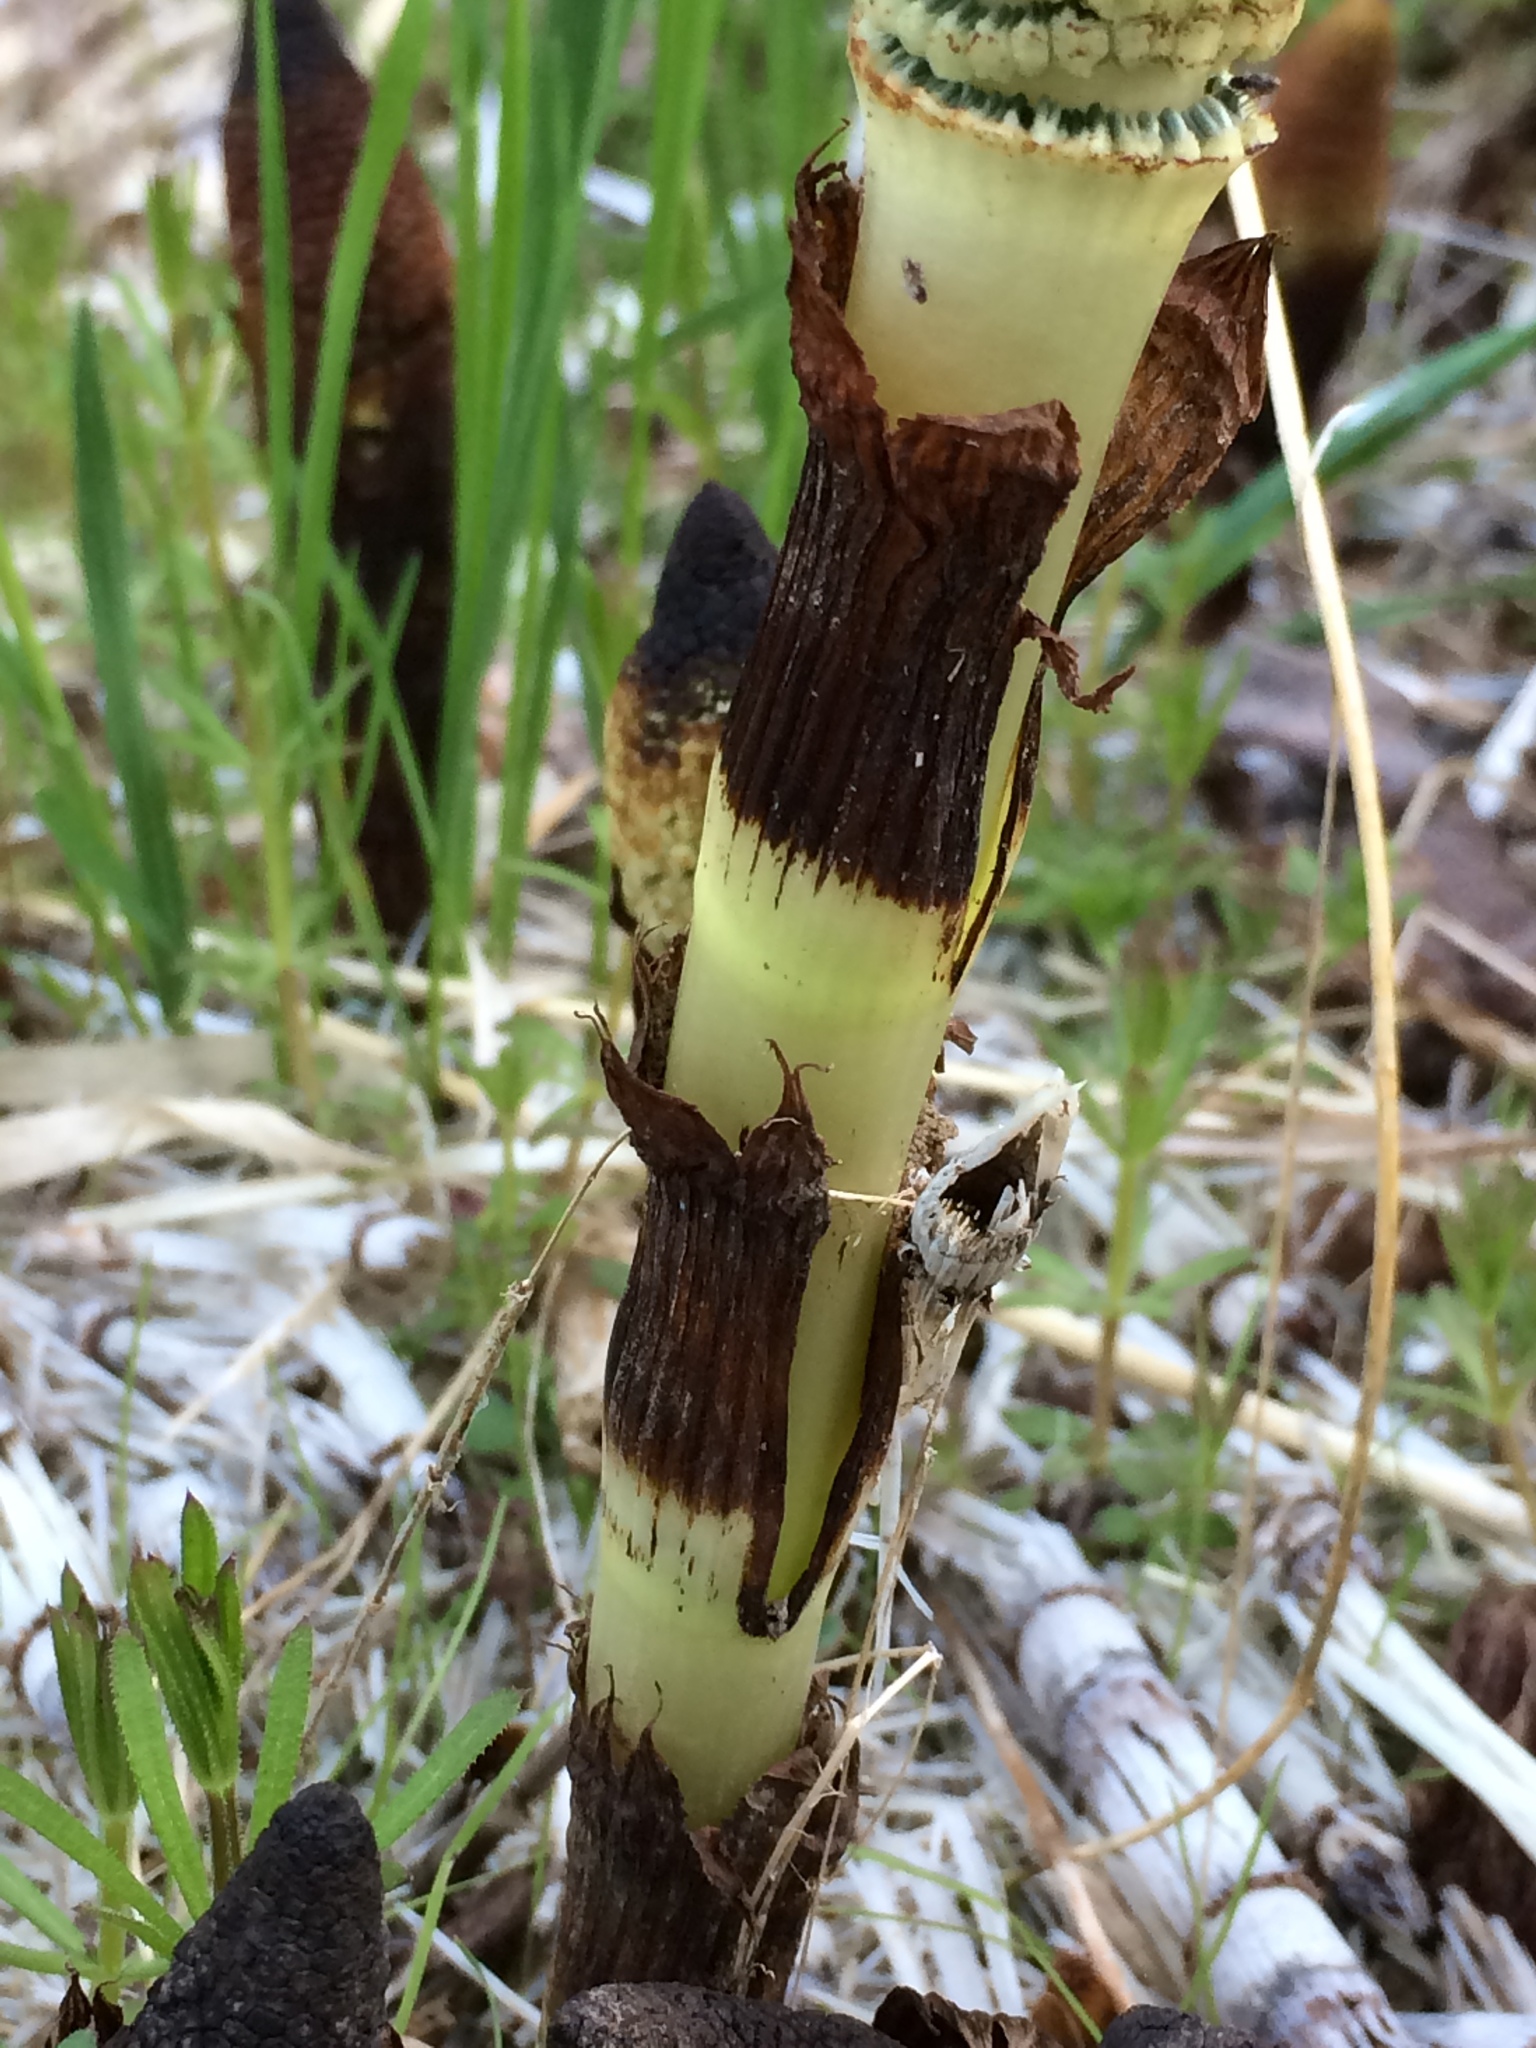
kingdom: Plantae
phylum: Tracheophyta
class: Polypodiopsida
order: Equisetales
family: Equisetaceae
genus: Equisetum
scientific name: Equisetum braunii
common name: Braun's horsetail
